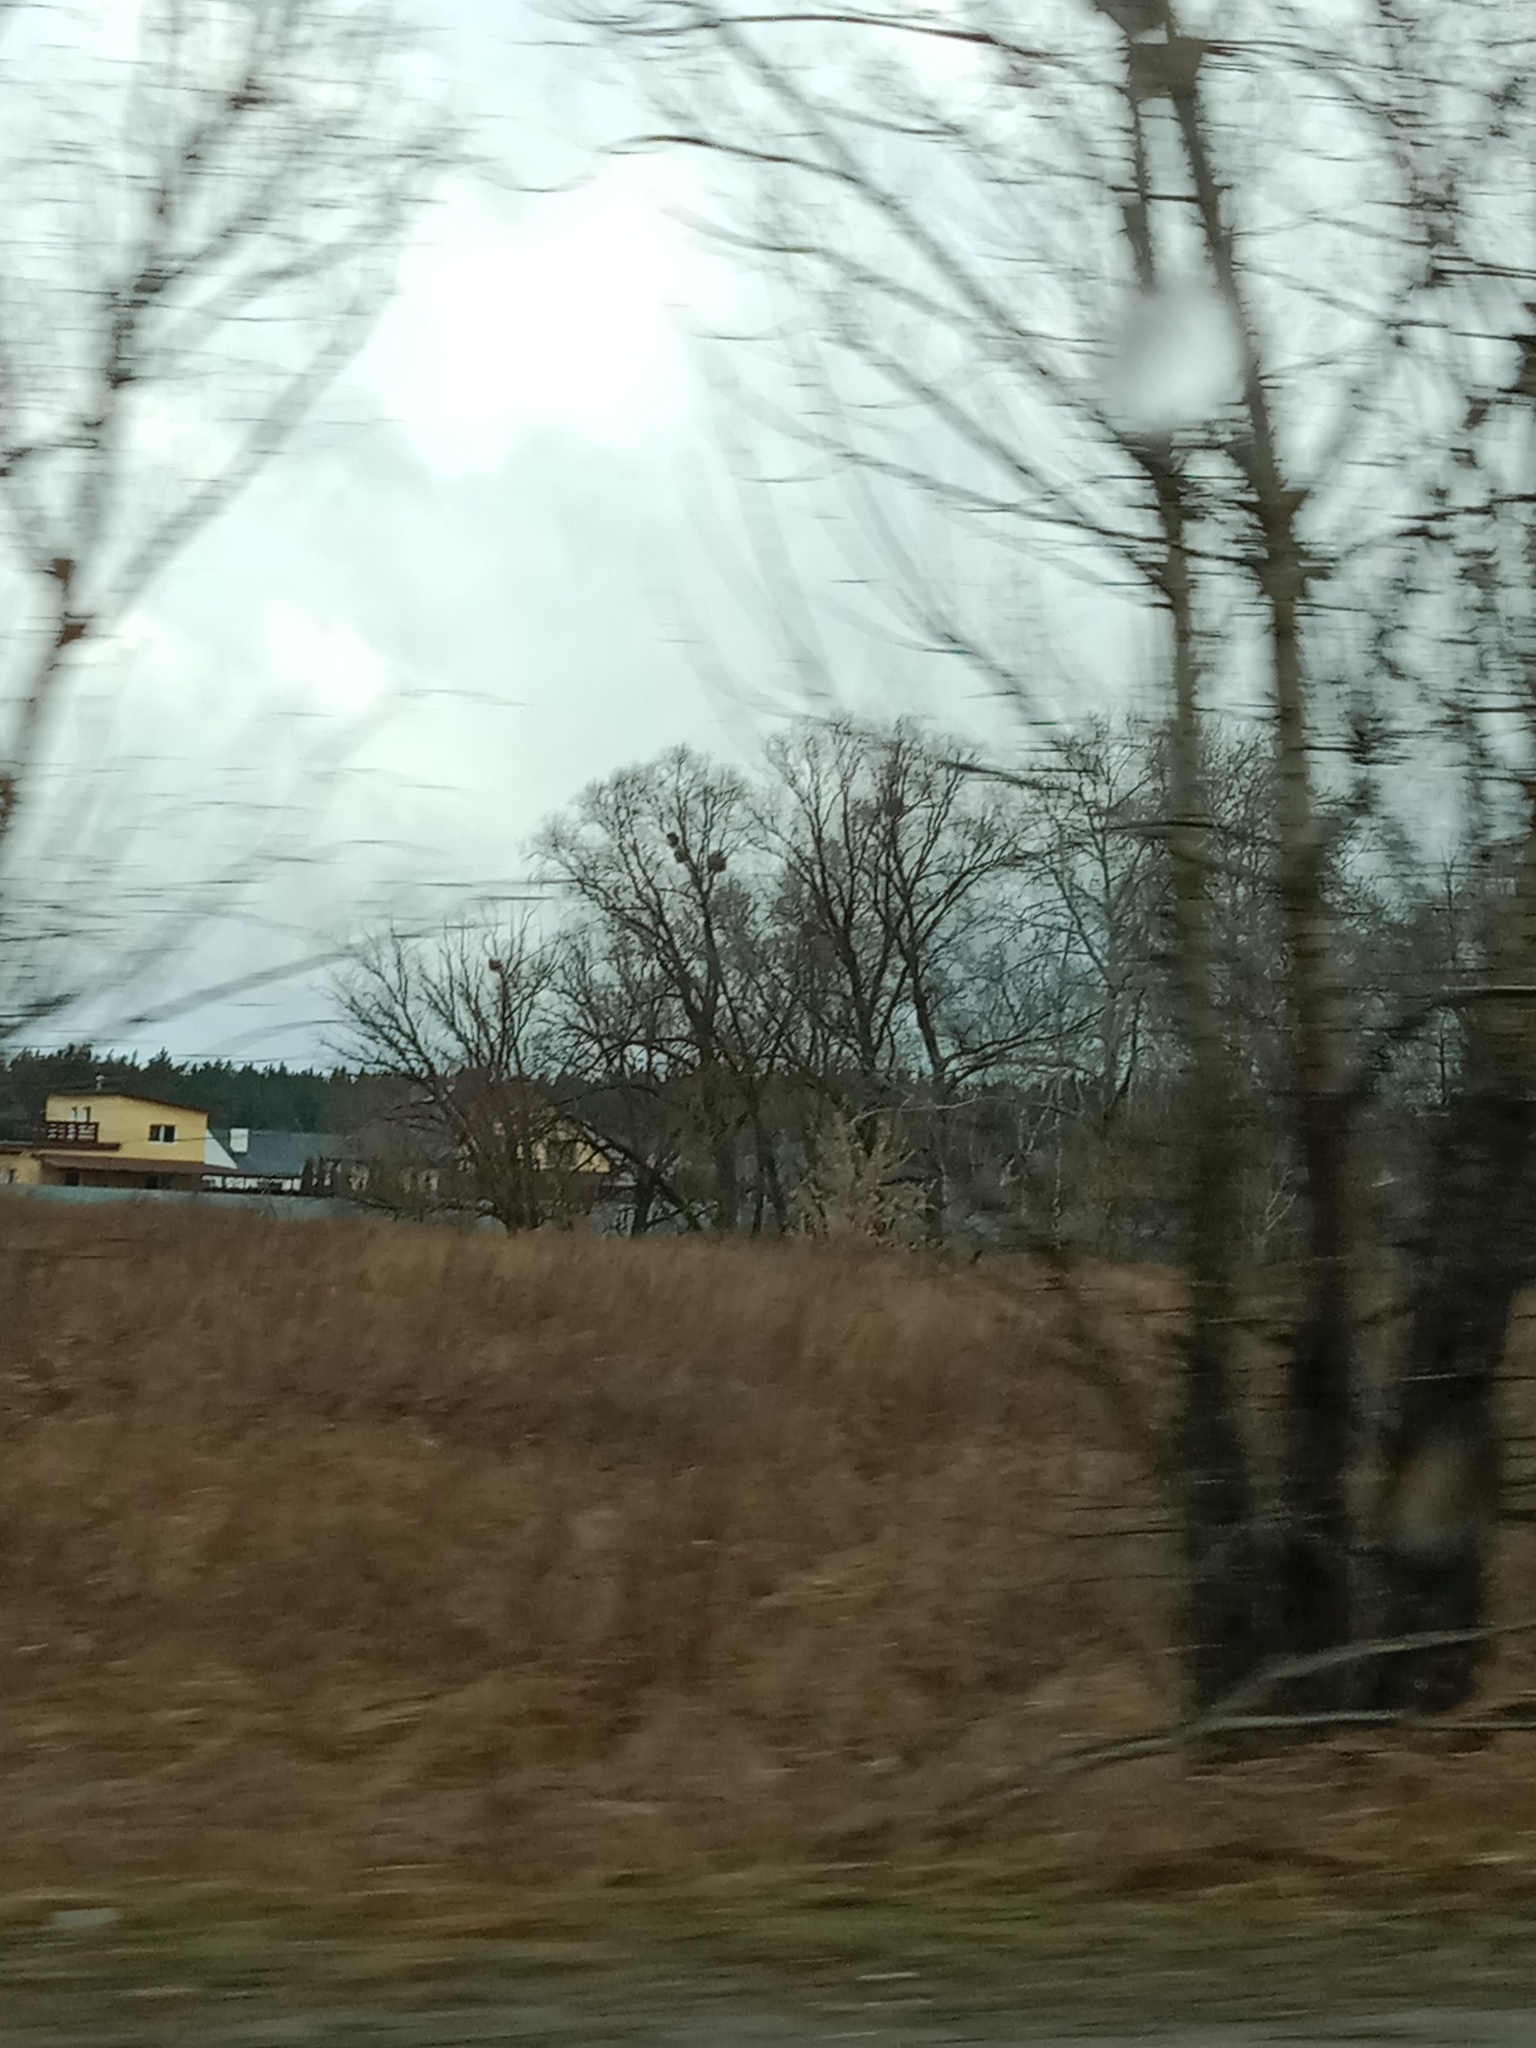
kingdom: Plantae
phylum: Tracheophyta
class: Magnoliopsida
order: Santalales
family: Viscaceae
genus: Viscum
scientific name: Viscum album
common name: Mistletoe
